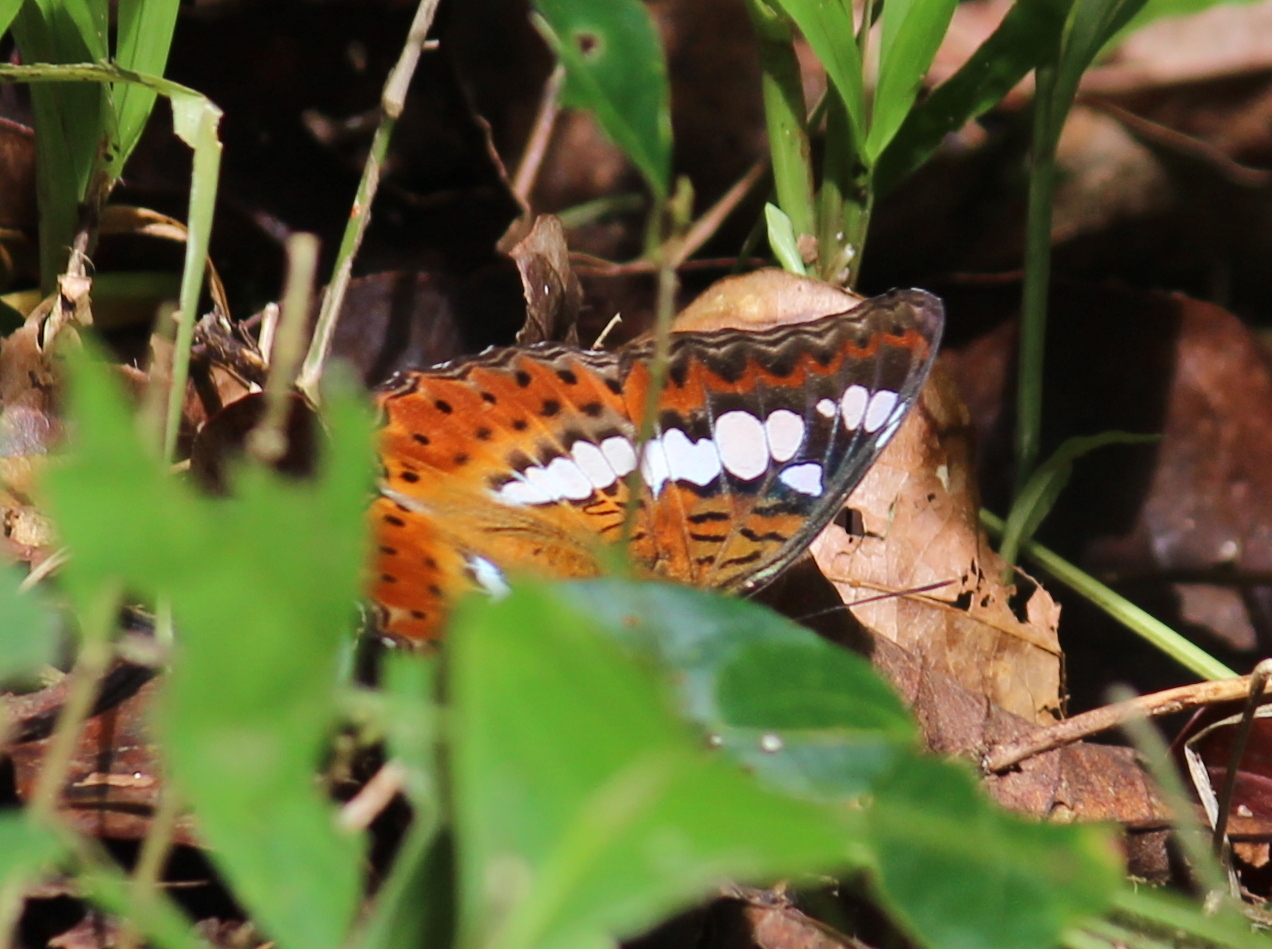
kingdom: Animalia
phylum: Arthropoda
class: Insecta
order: Lepidoptera
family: Nymphalidae
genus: Limenitis
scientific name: Limenitis Moduza procris
